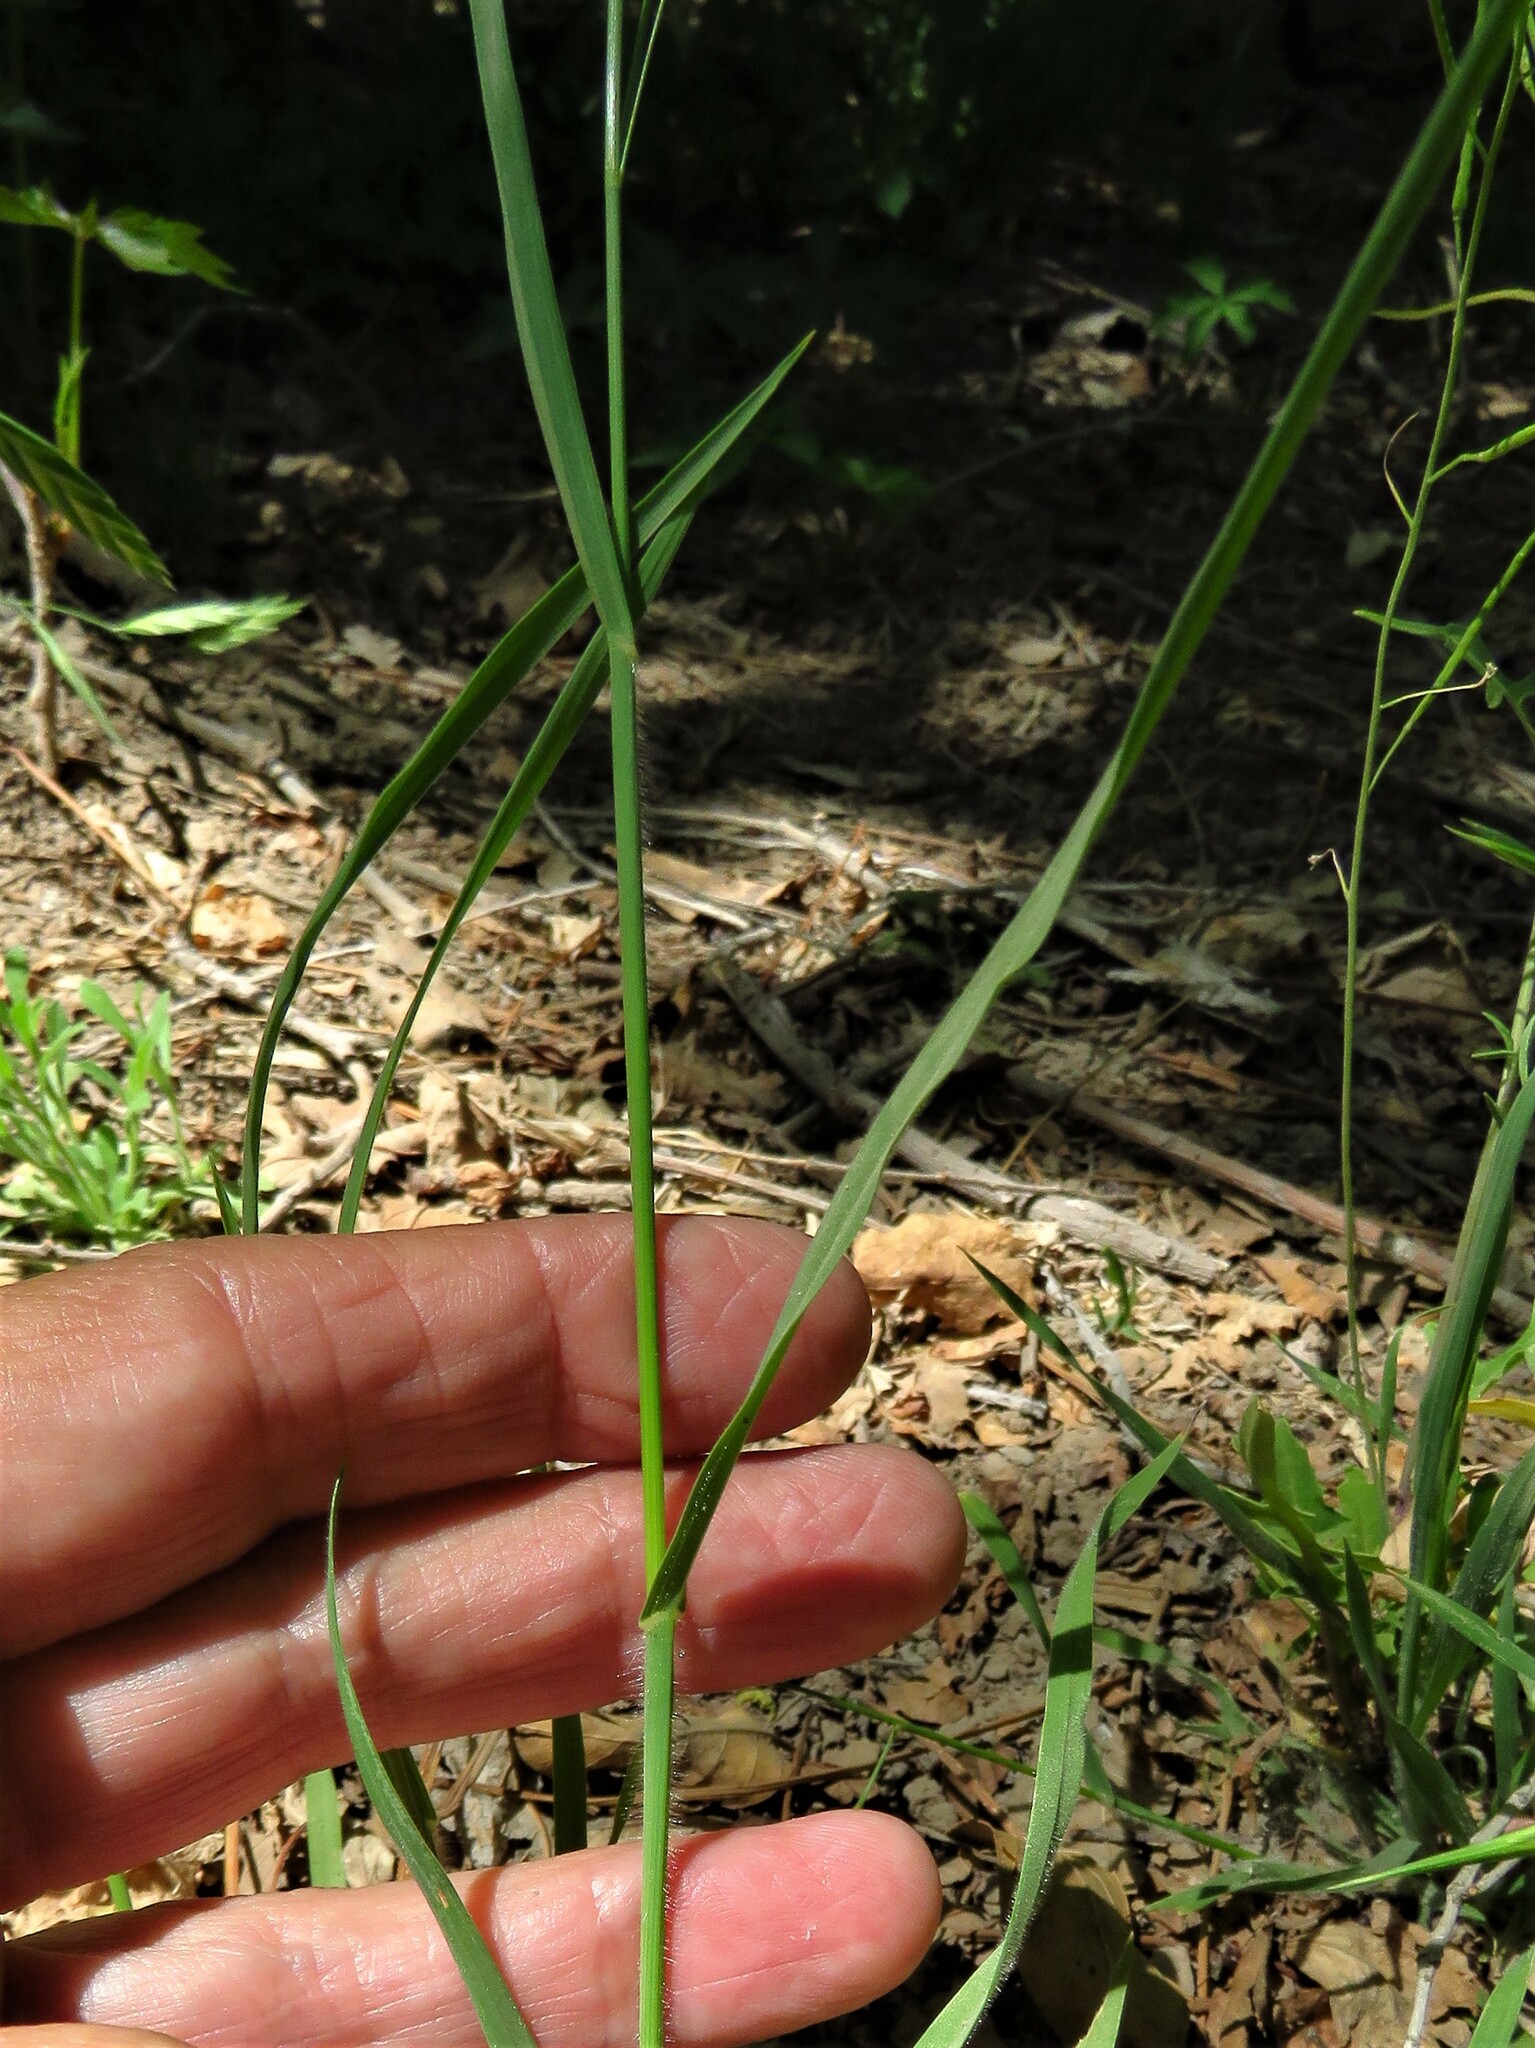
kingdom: Plantae
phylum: Tracheophyta
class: Liliopsida
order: Poales
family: Poaceae
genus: Bromus
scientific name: Bromus catharticus
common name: Rescuegrass
